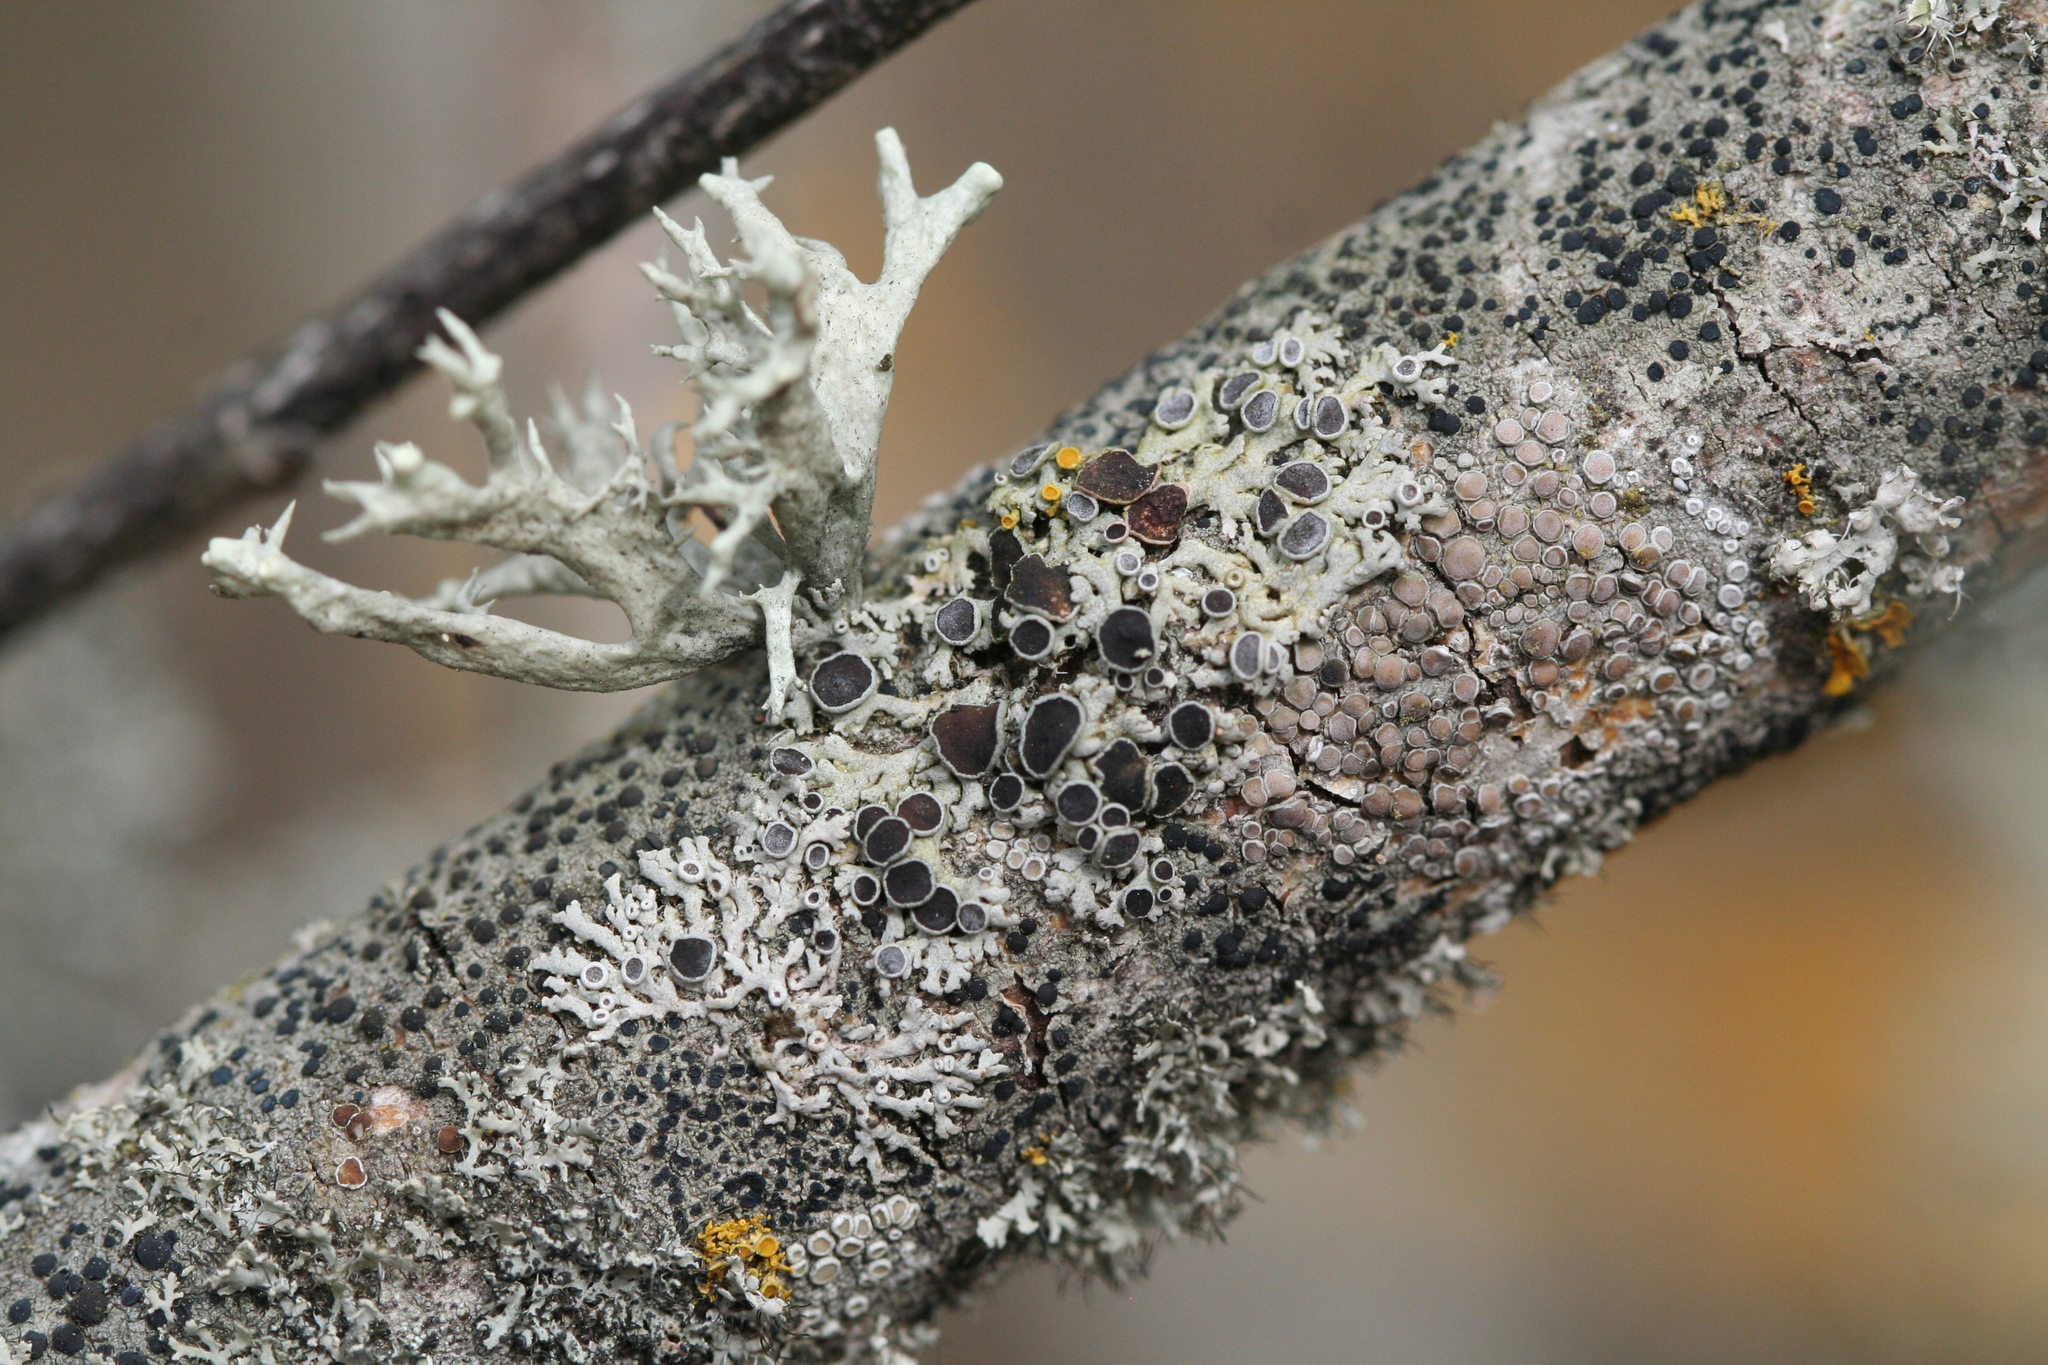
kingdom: Fungi
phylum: Ascomycota
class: Lecanoromycetes
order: Caliciales
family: Physciaceae
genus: Physcia
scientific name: Physcia stellaris
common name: Star rosette lichen
